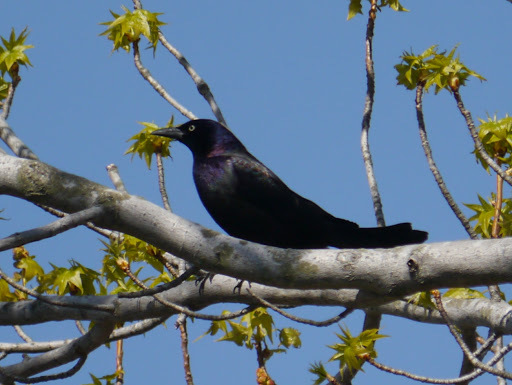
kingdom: Animalia
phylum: Chordata
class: Aves
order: Passeriformes
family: Icteridae
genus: Quiscalus
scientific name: Quiscalus quiscula
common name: Common grackle
